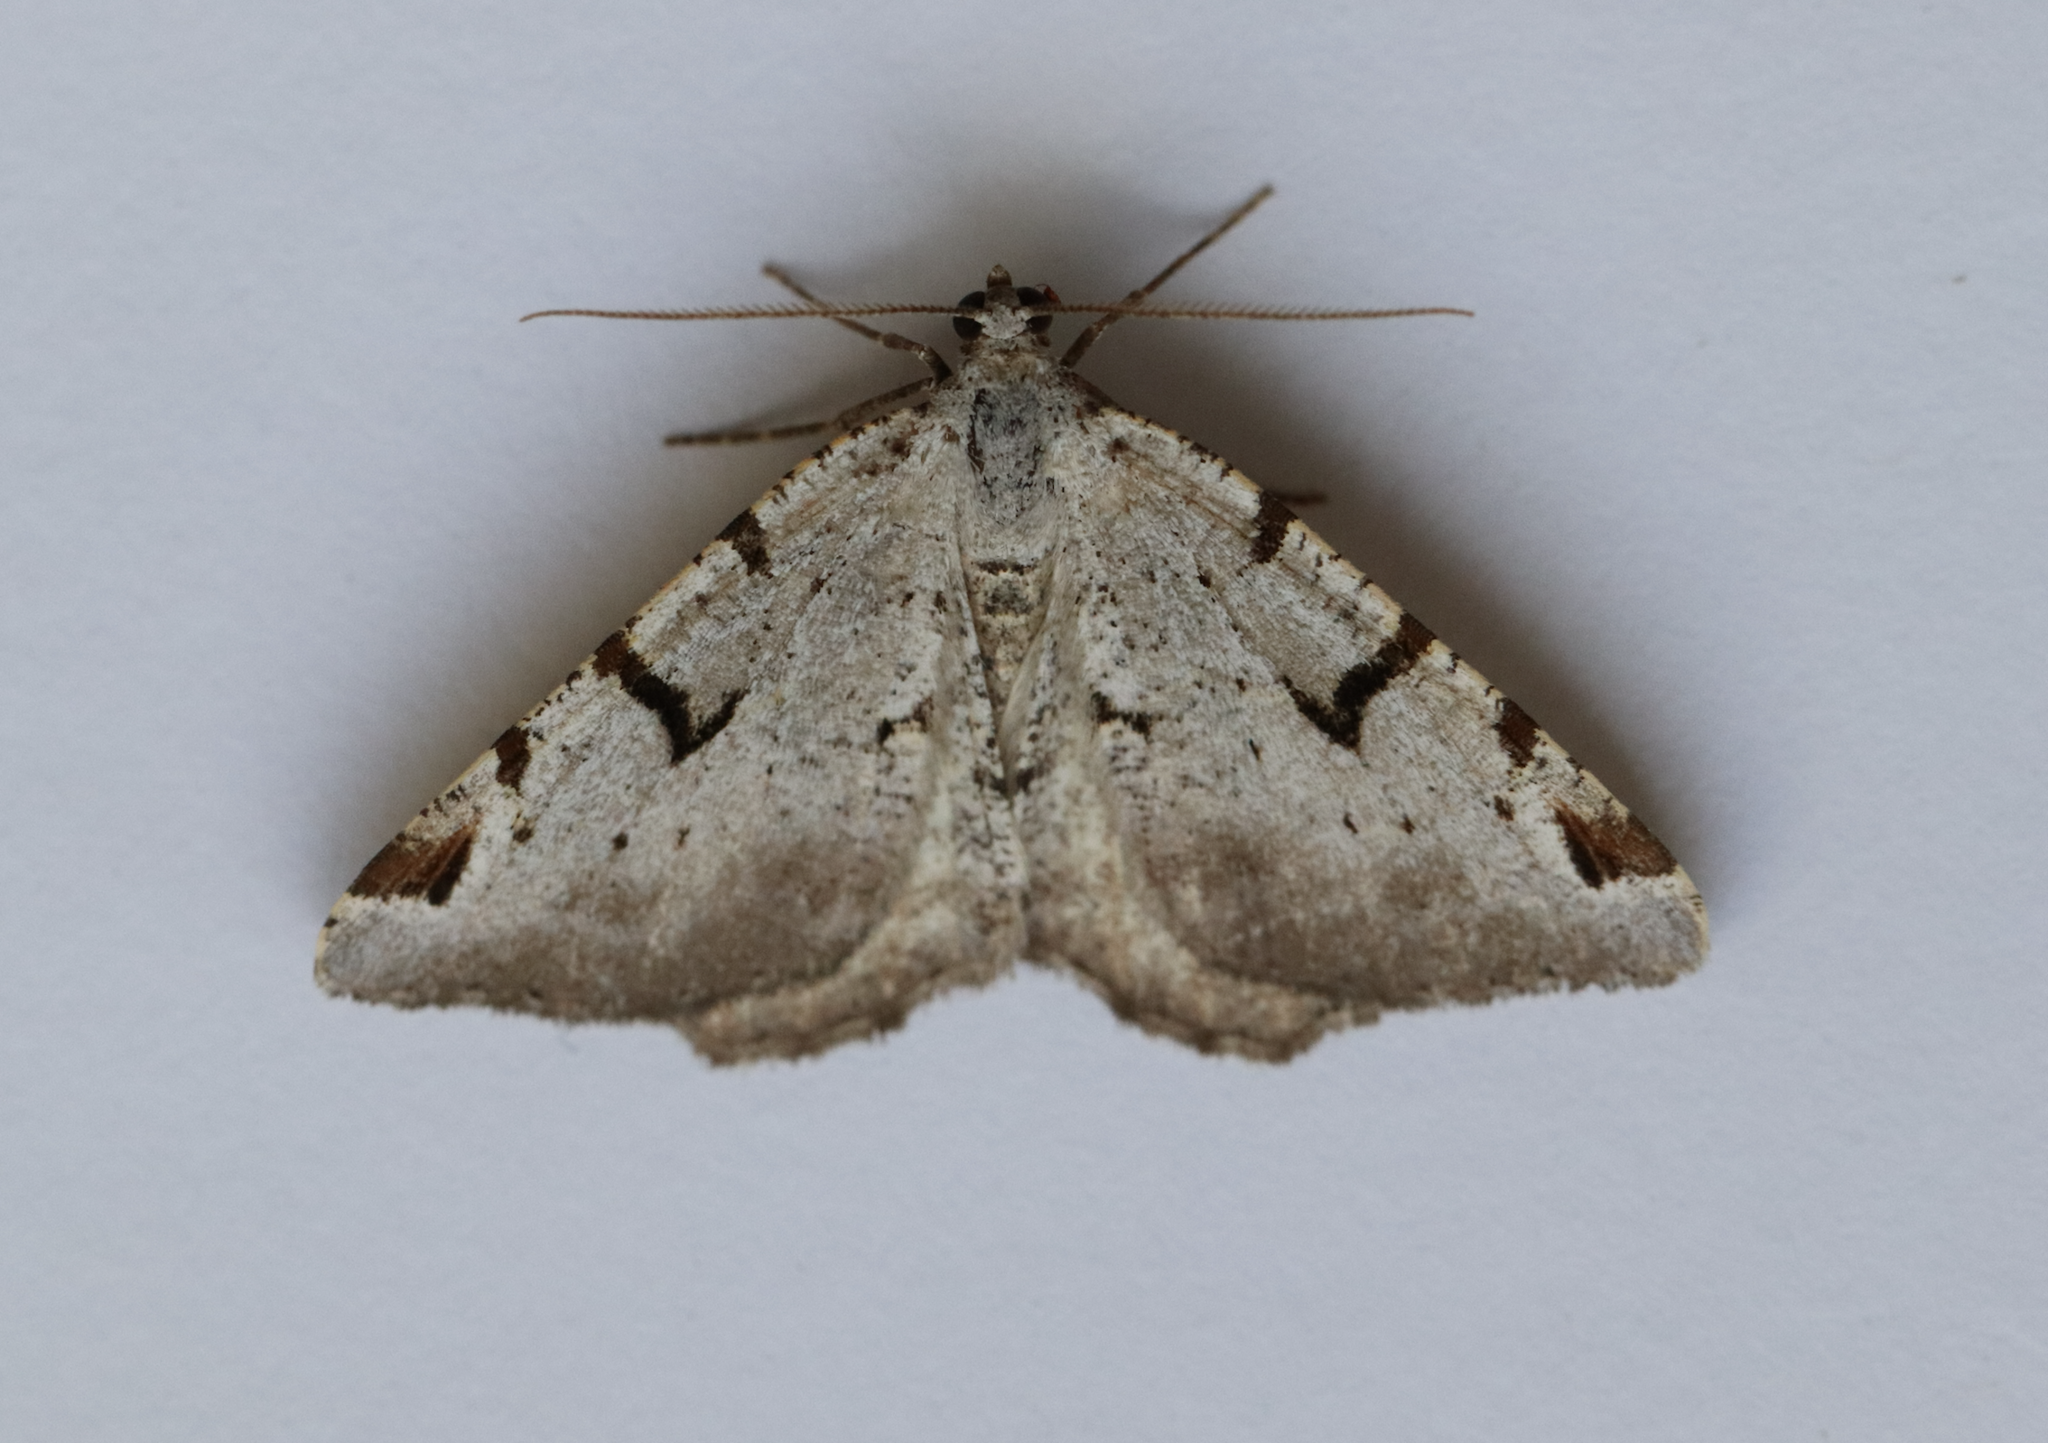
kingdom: Animalia
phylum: Arthropoda
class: Insecta
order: Lepidoptera
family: Geometridae
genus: Macaria
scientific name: Macaria wauaria
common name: V-moth
